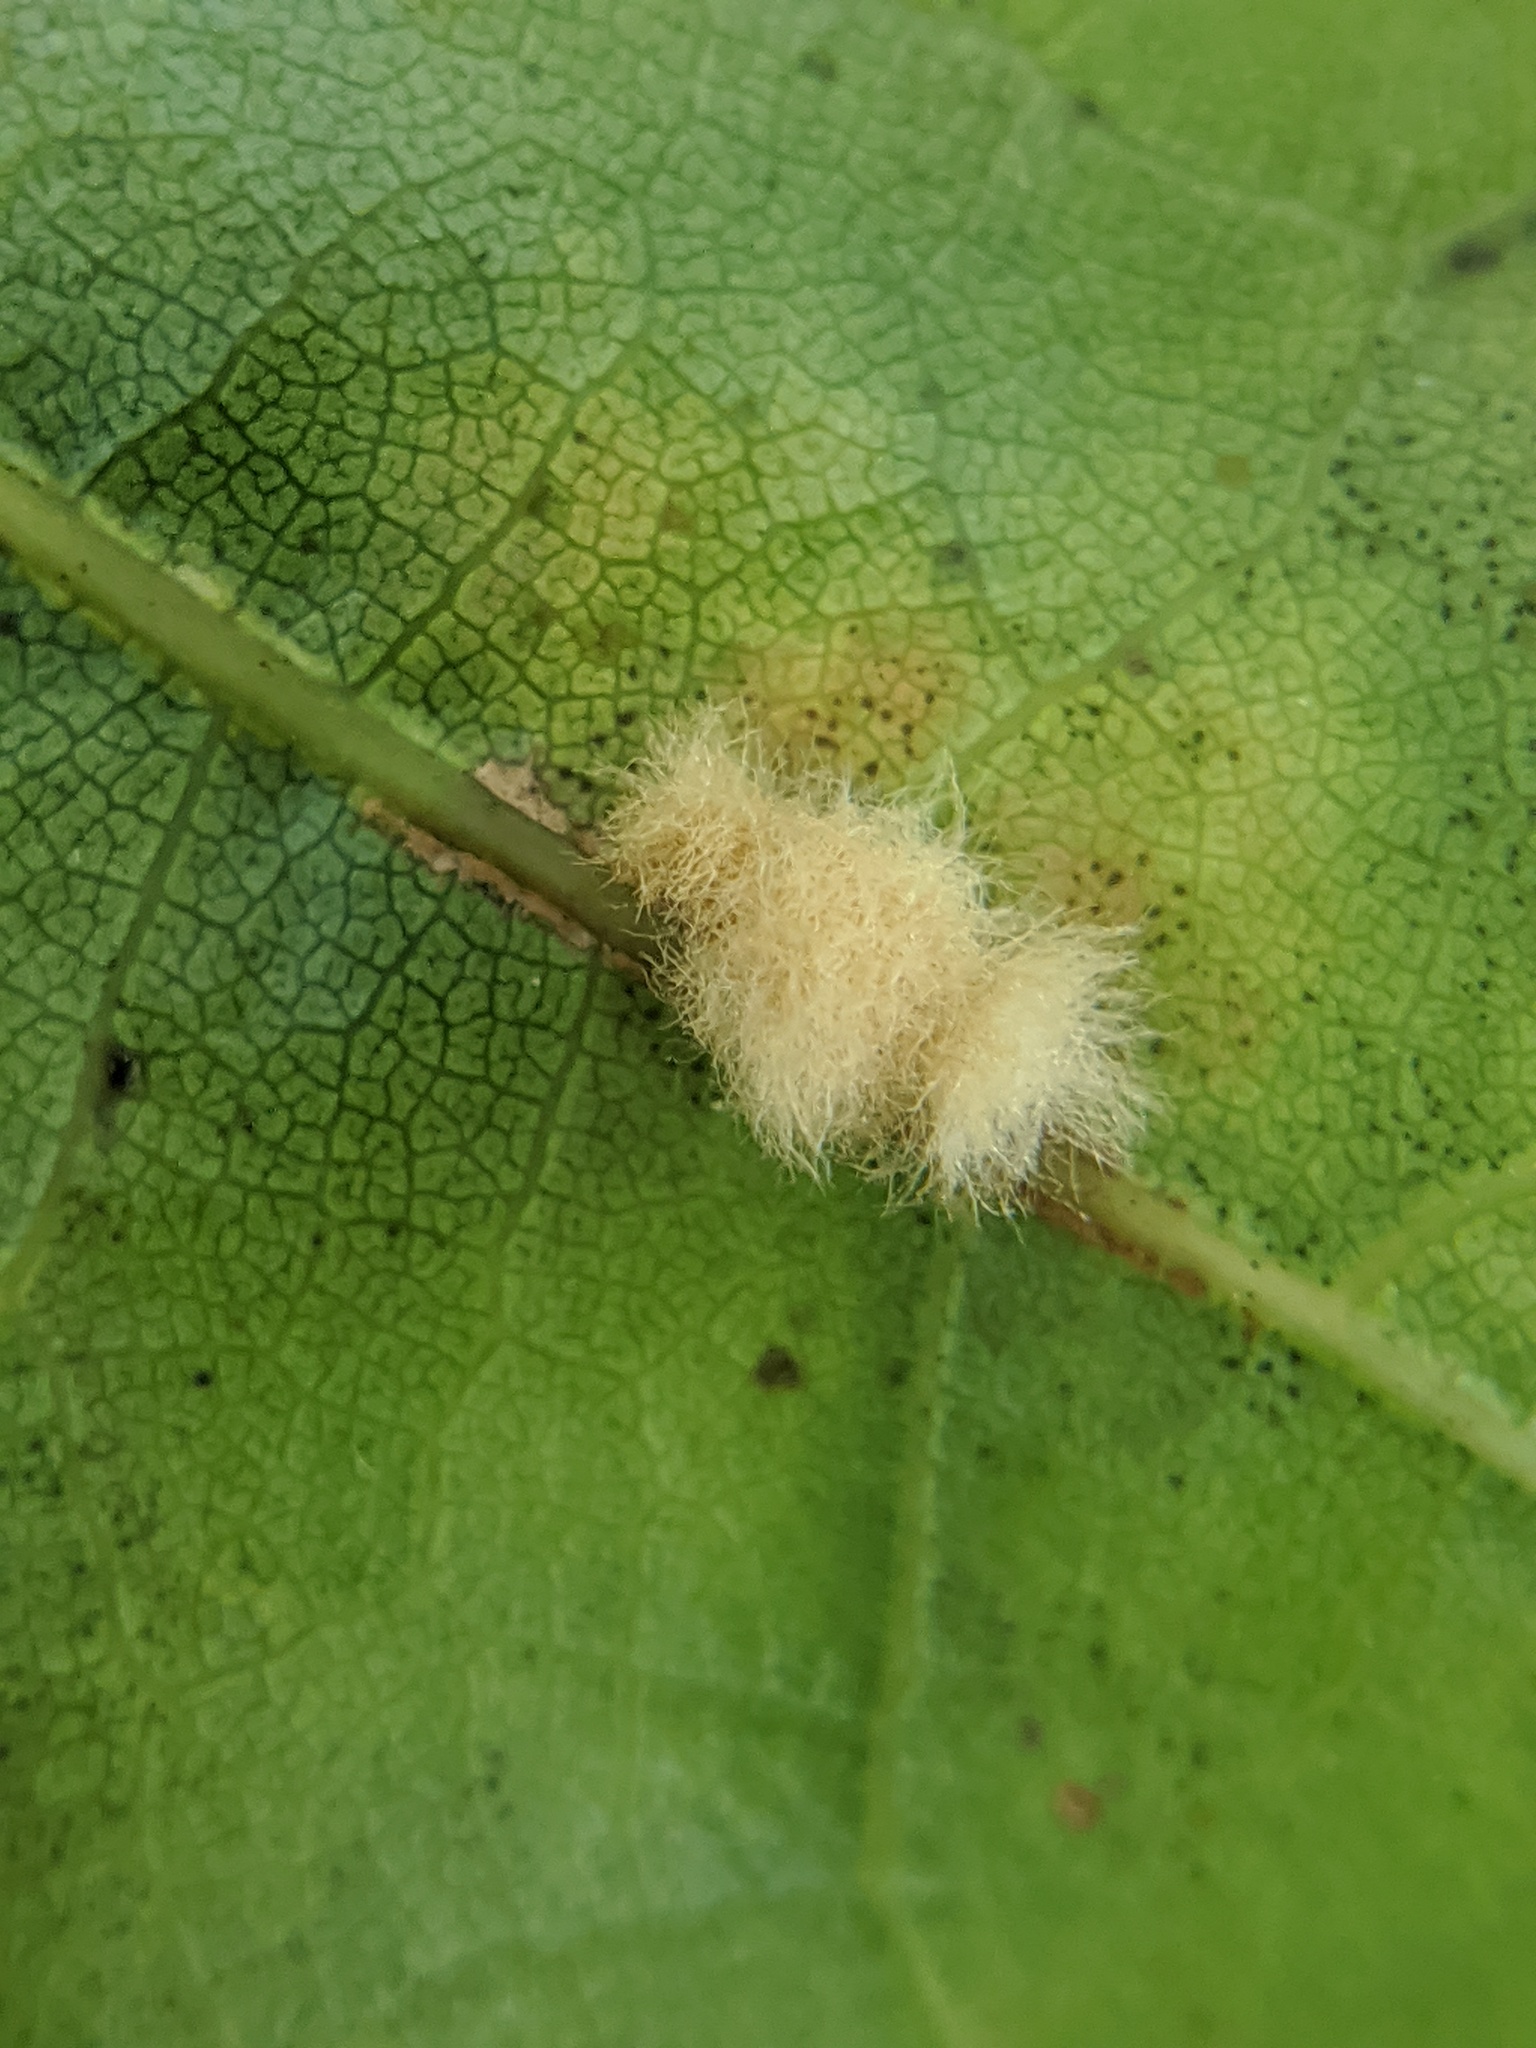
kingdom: Animalia
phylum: Arthropoda
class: Insecta
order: Hymenoptera
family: Cynipidae
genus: Callirhytis
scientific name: Callirhytis
